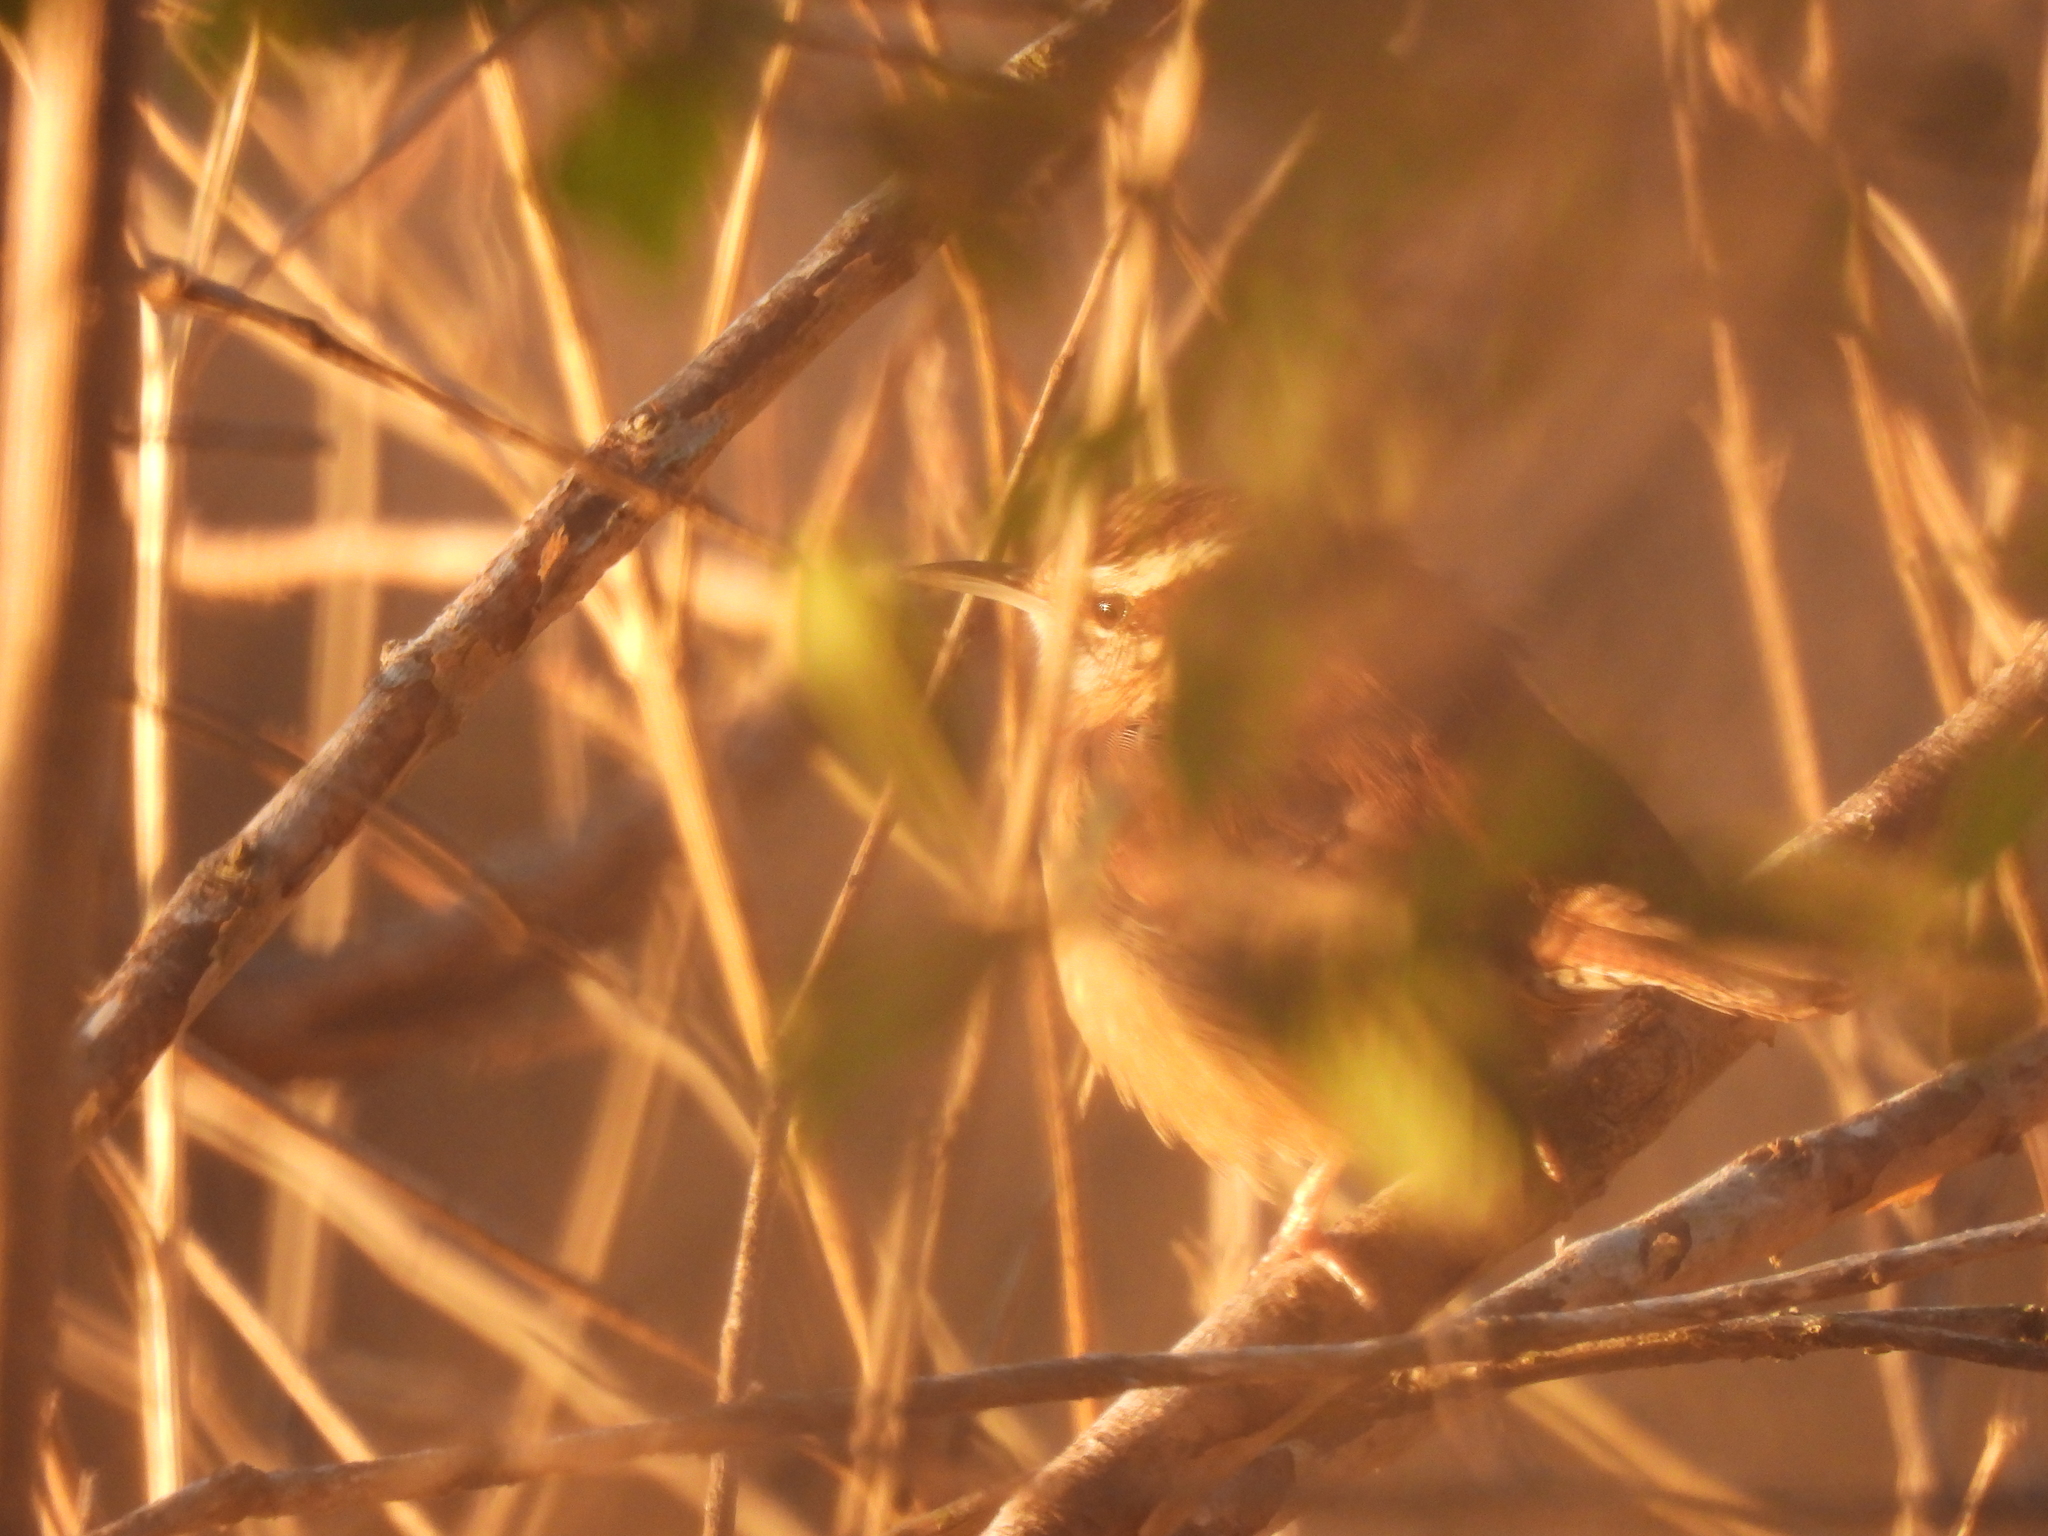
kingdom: Animalia
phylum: Chordata
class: Aves
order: Passeriformes
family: Troglodytidae
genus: Thryothorus
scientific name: Thryothorus ludovicianus
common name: Carolina wren
